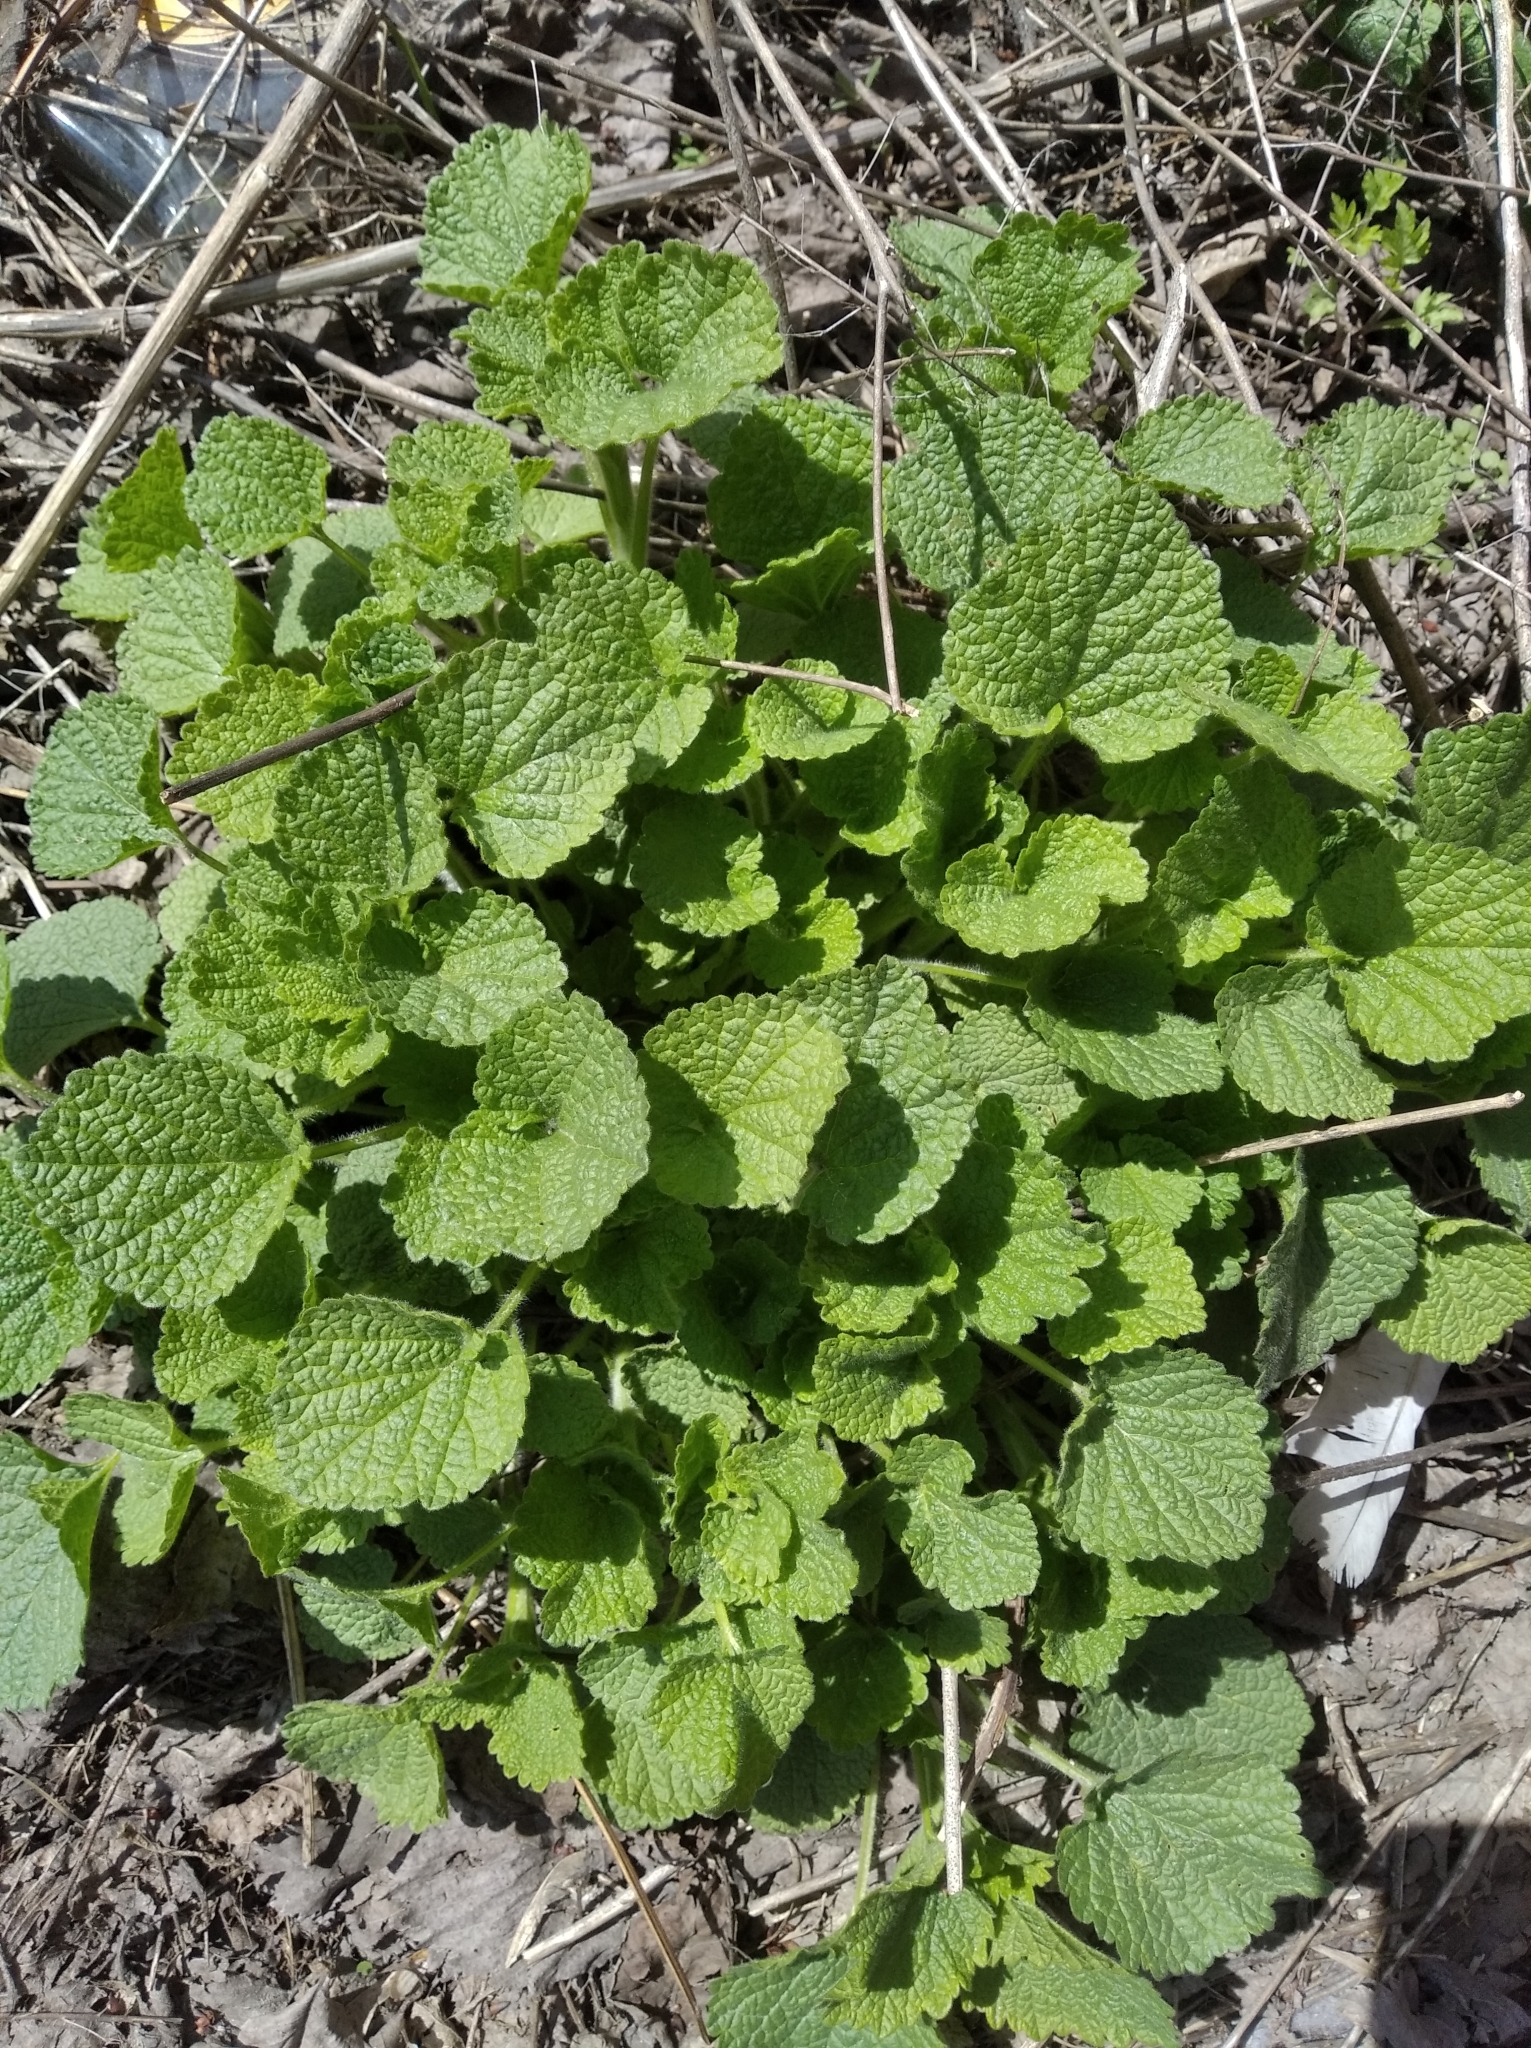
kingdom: Plantae
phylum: Tracheophyta
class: Magnoliopsida
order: Brassicales
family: Brassicaceae
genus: Alliaria
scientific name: Alliaria petiolata
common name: Garlic mustard
